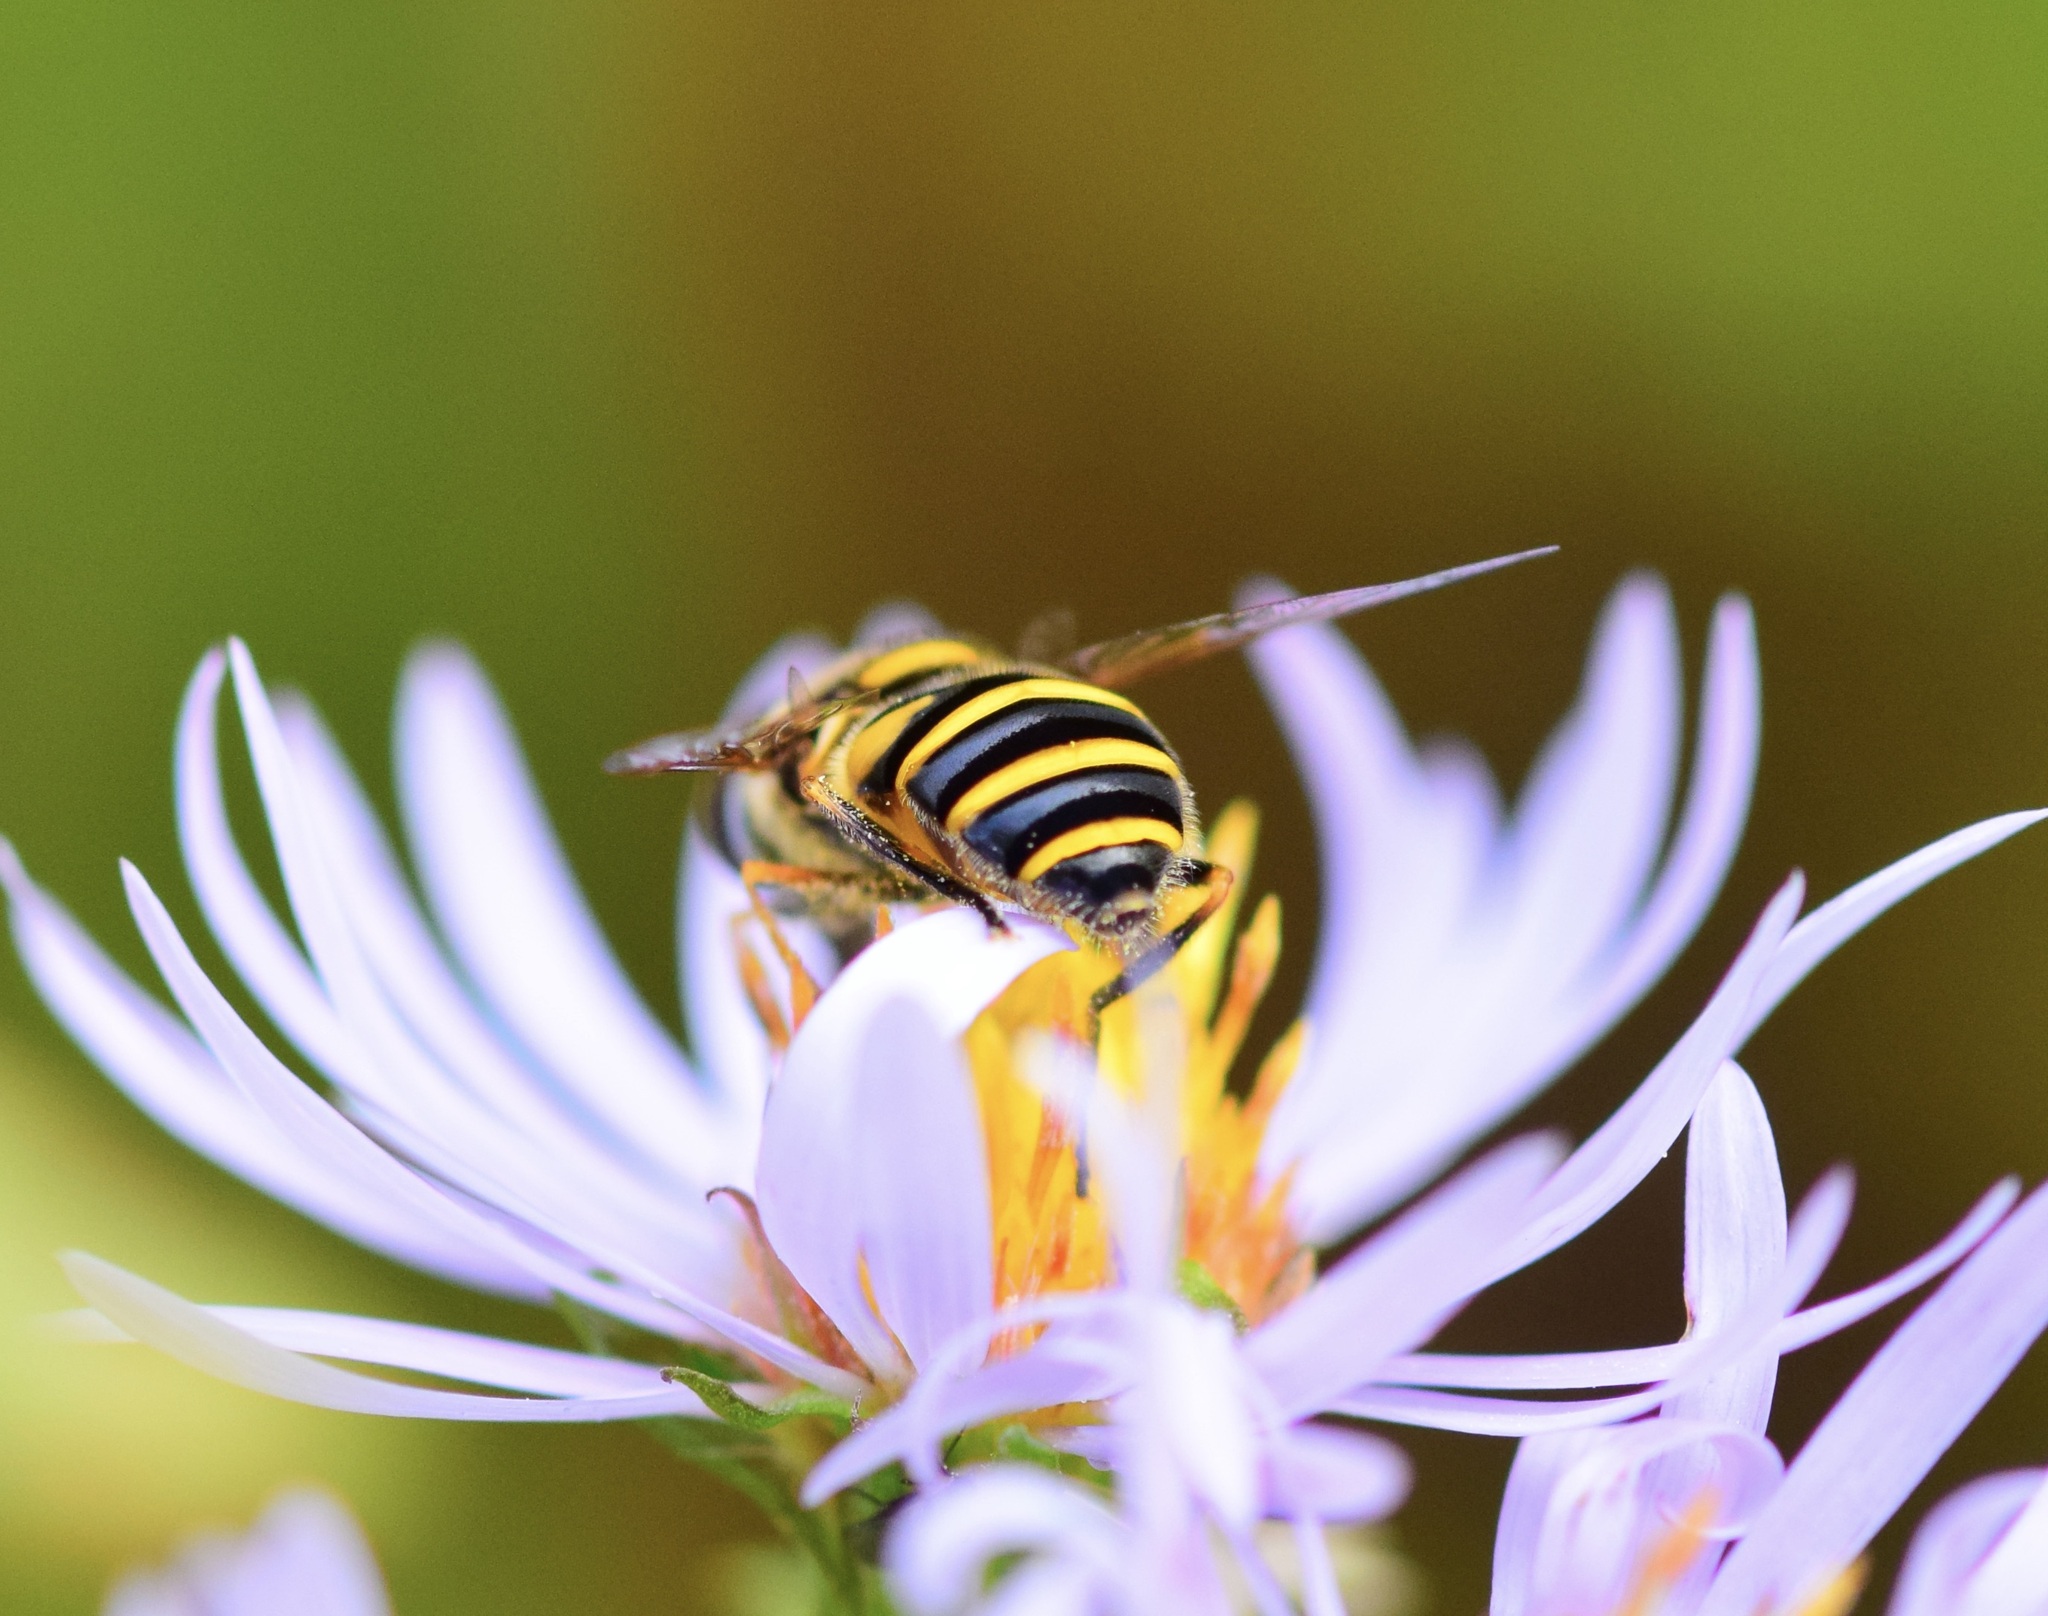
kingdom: Animalia
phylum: Arthropoda
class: Insecta
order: Diptera
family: Syrphidae
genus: Eristalis
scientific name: Eristalis transversa
